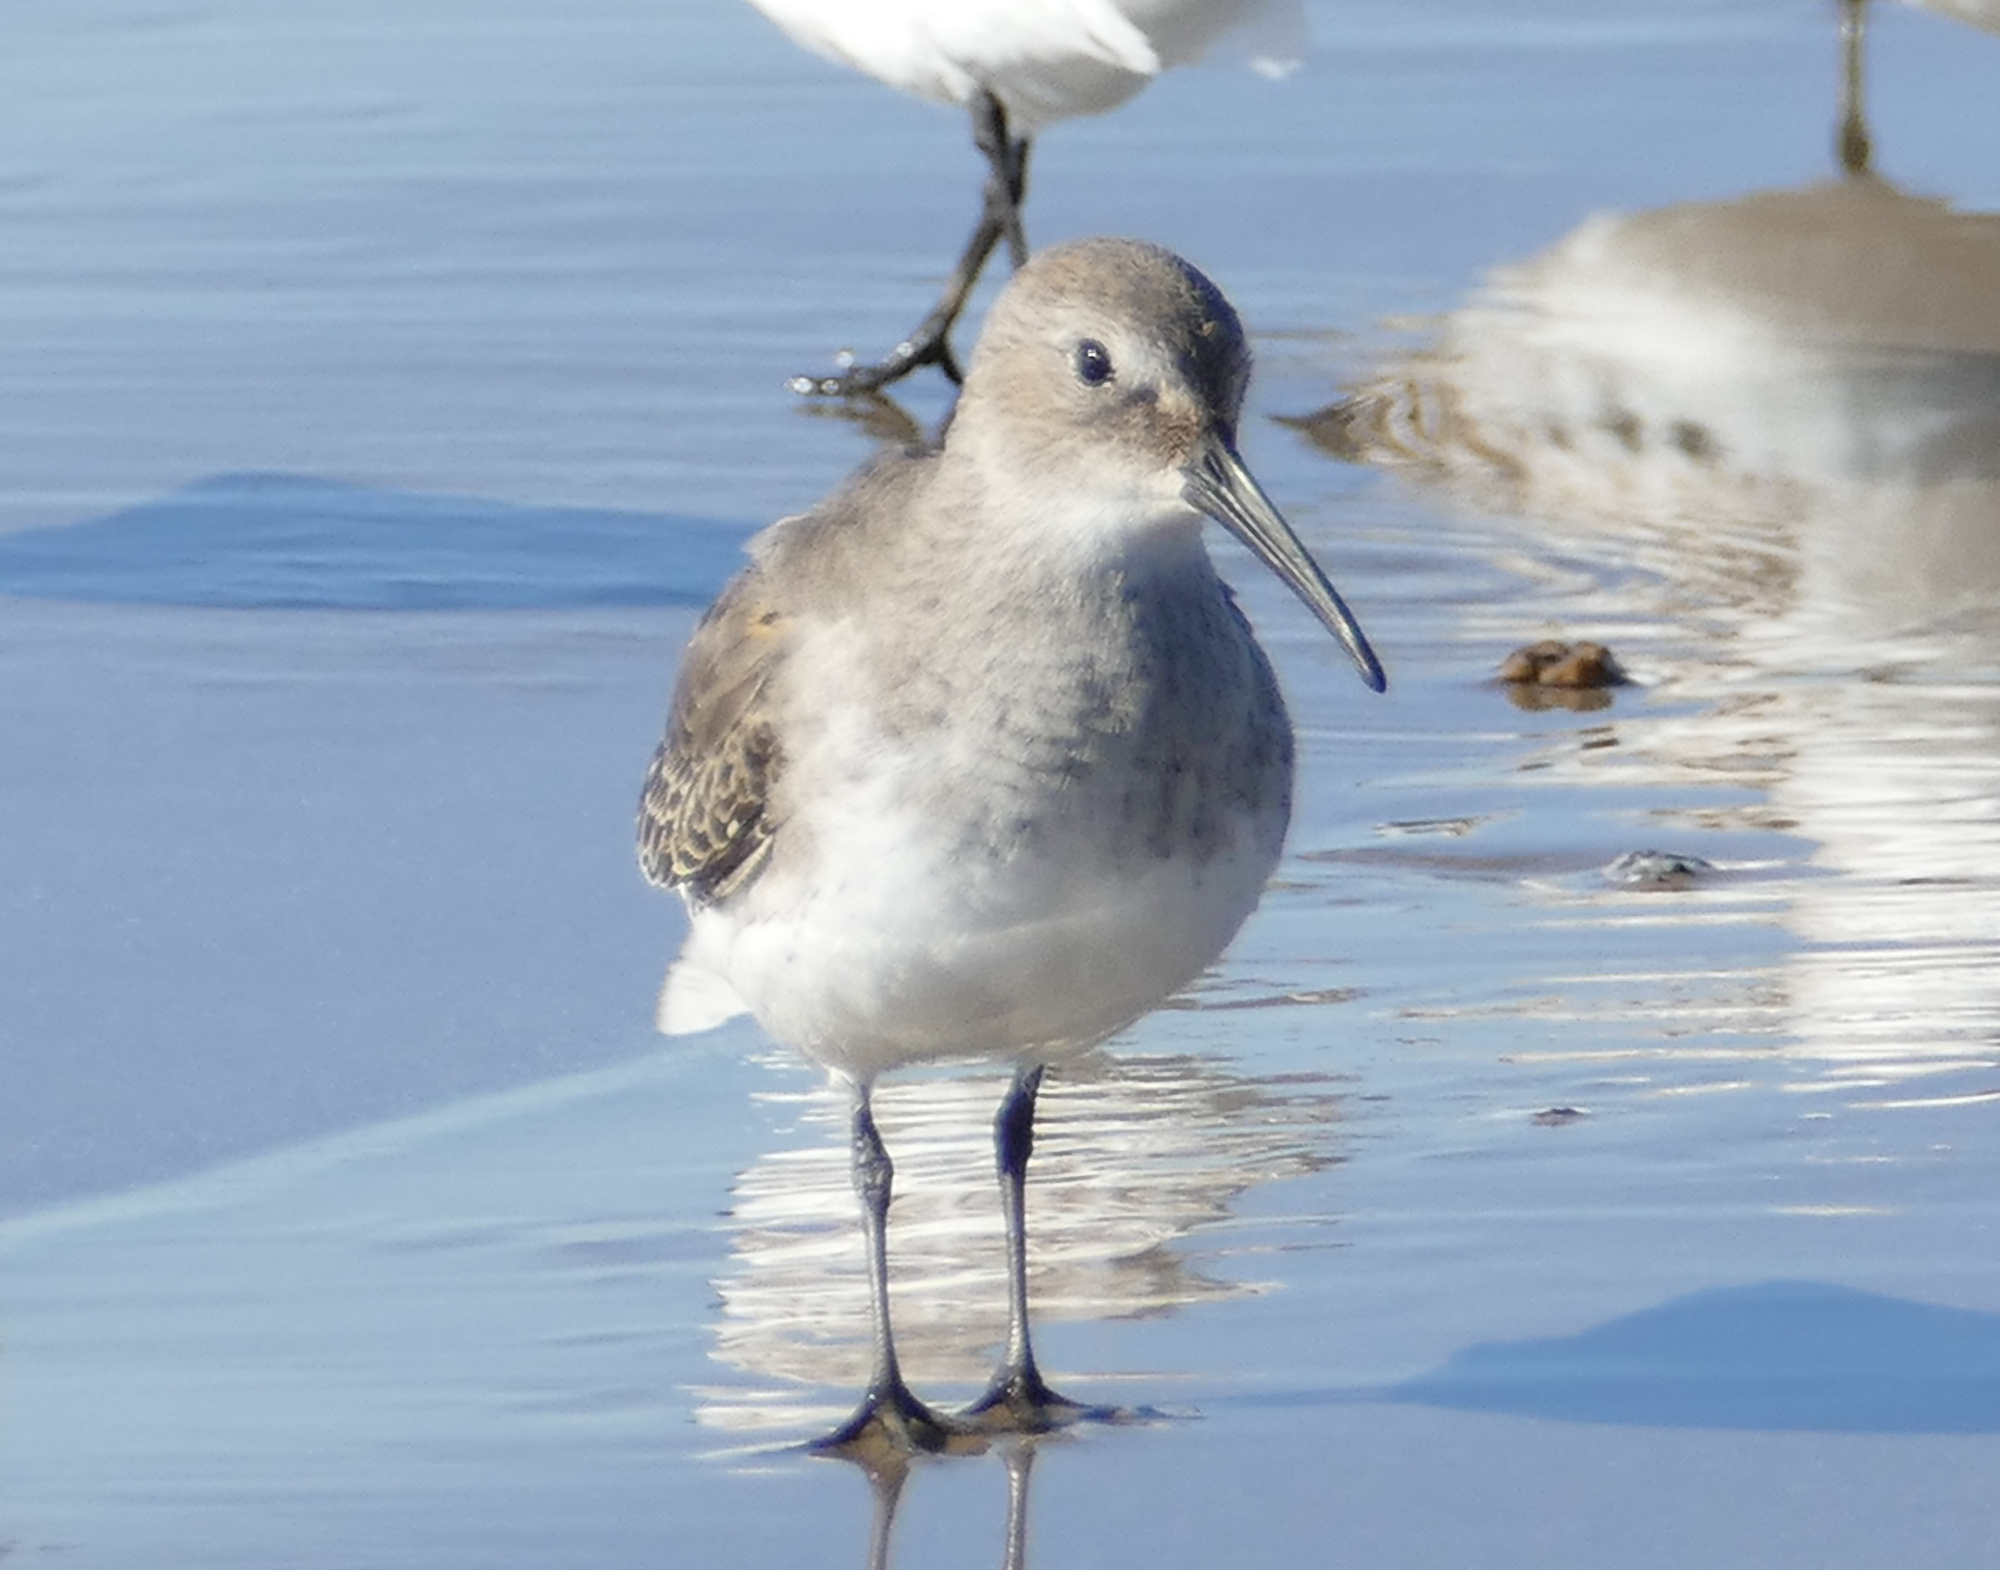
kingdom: Animalia
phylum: Chordata
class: Aves
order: Charadriiformes
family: Scolopacidae
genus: Calidris
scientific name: Calidris alpina
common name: Dunlin
